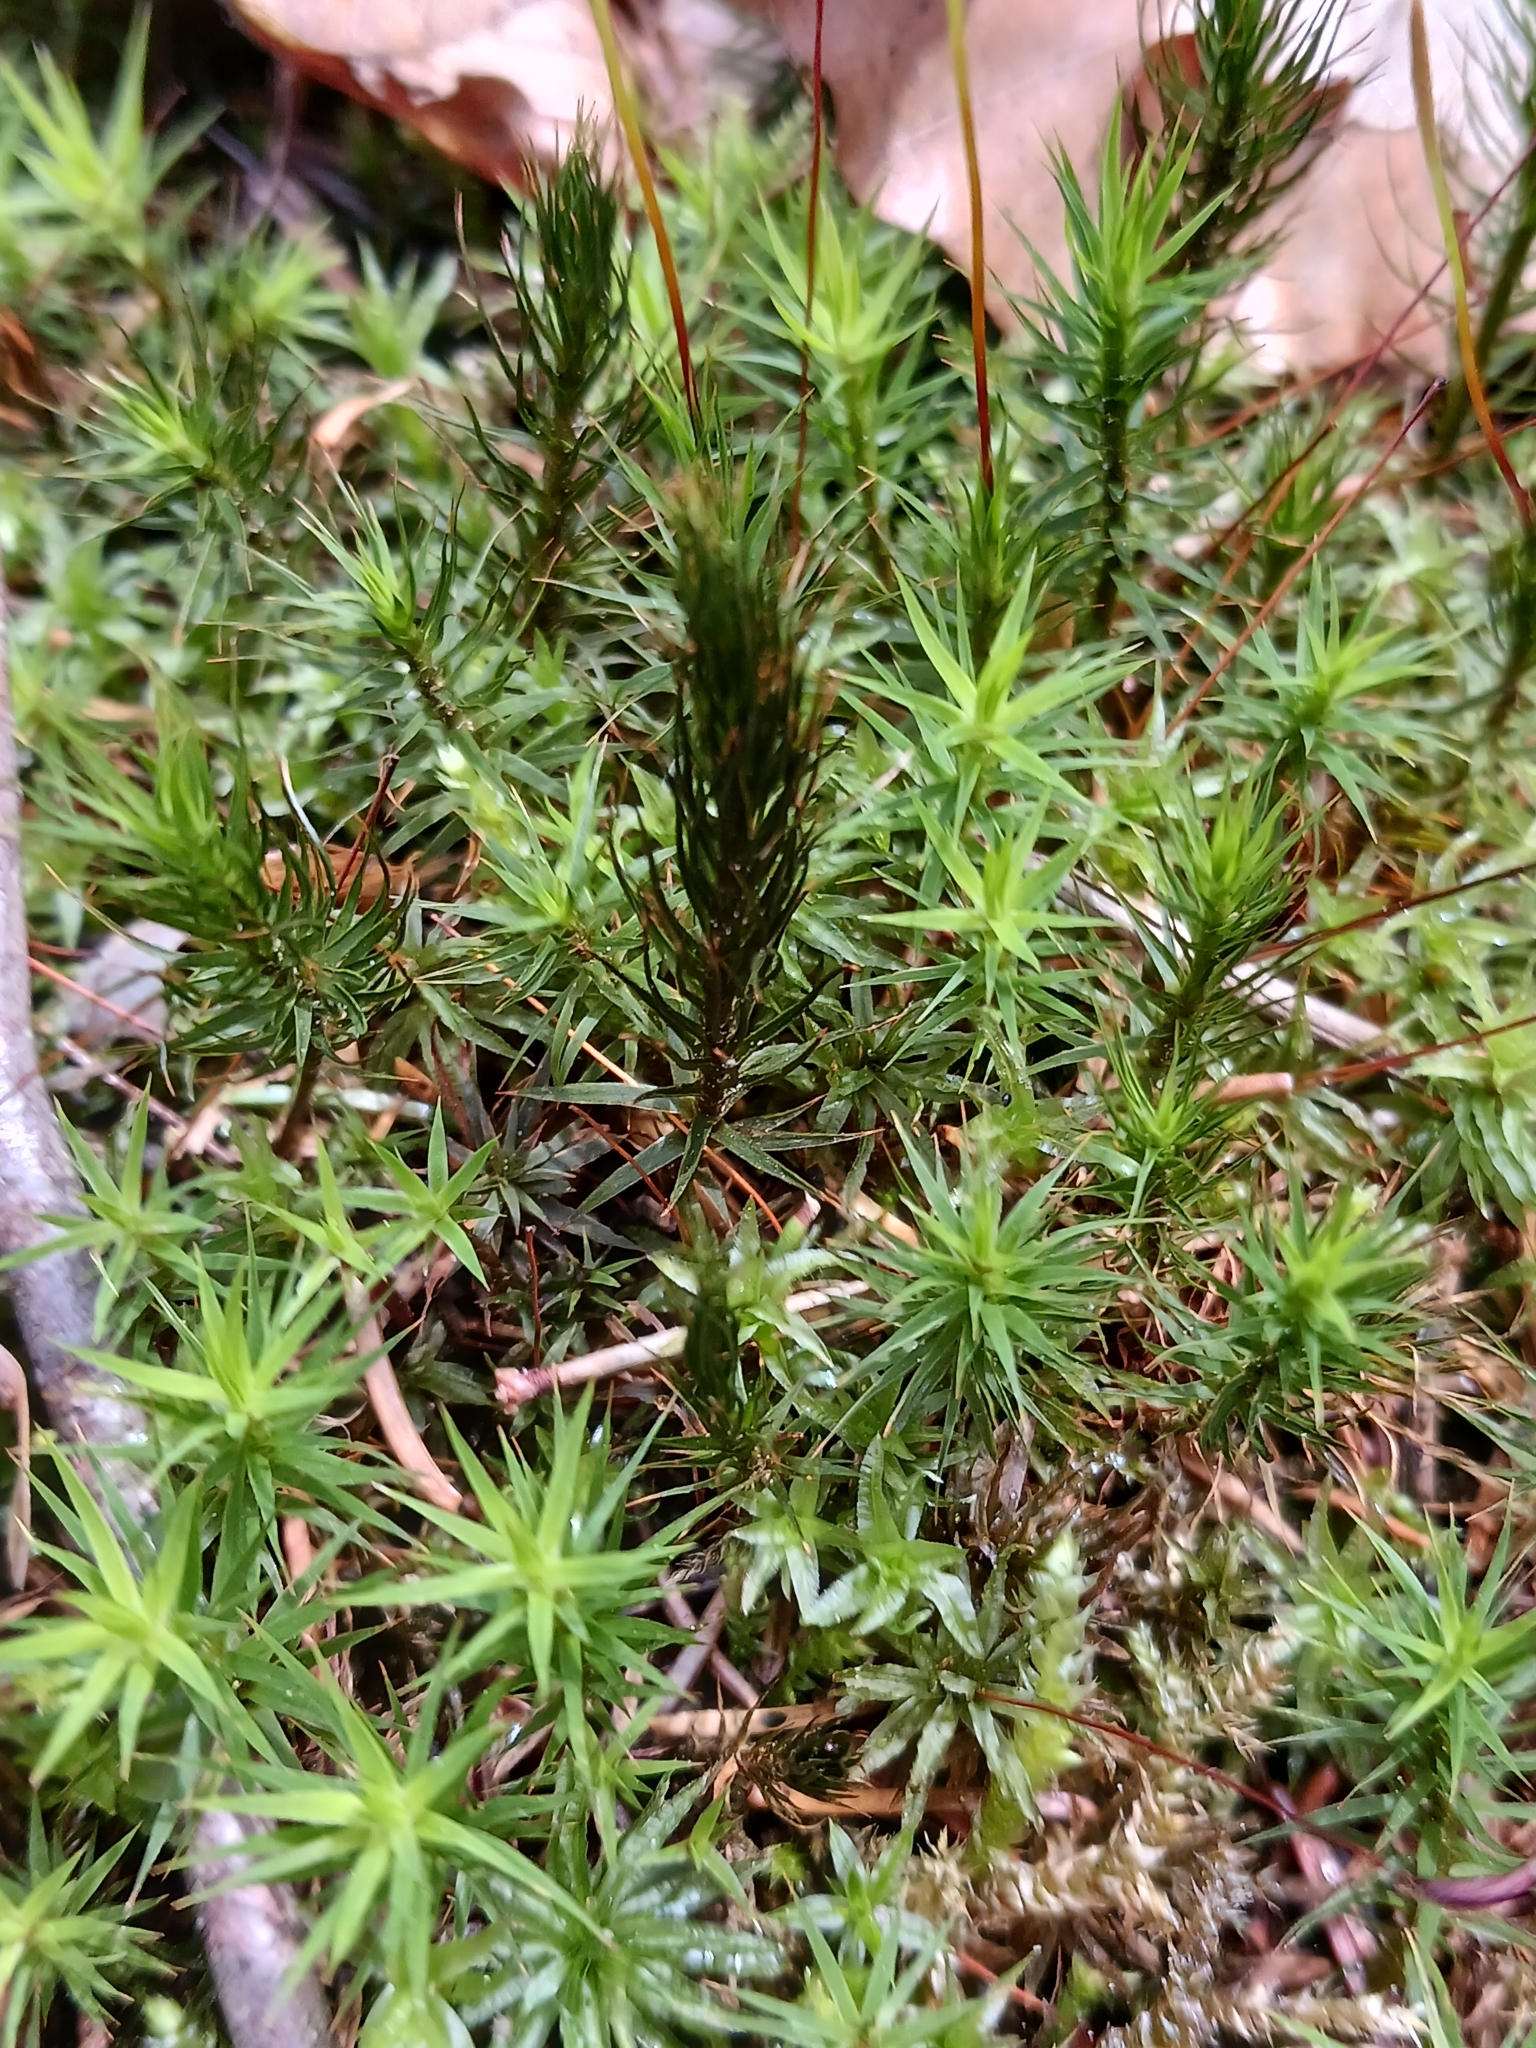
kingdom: Plantae
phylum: Bryophyta
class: Polytrichopsida
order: Polytrichales
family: Polytrichaceae
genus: Polytrichum
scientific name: Polytrichum formosum
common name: Bank haircap moss
